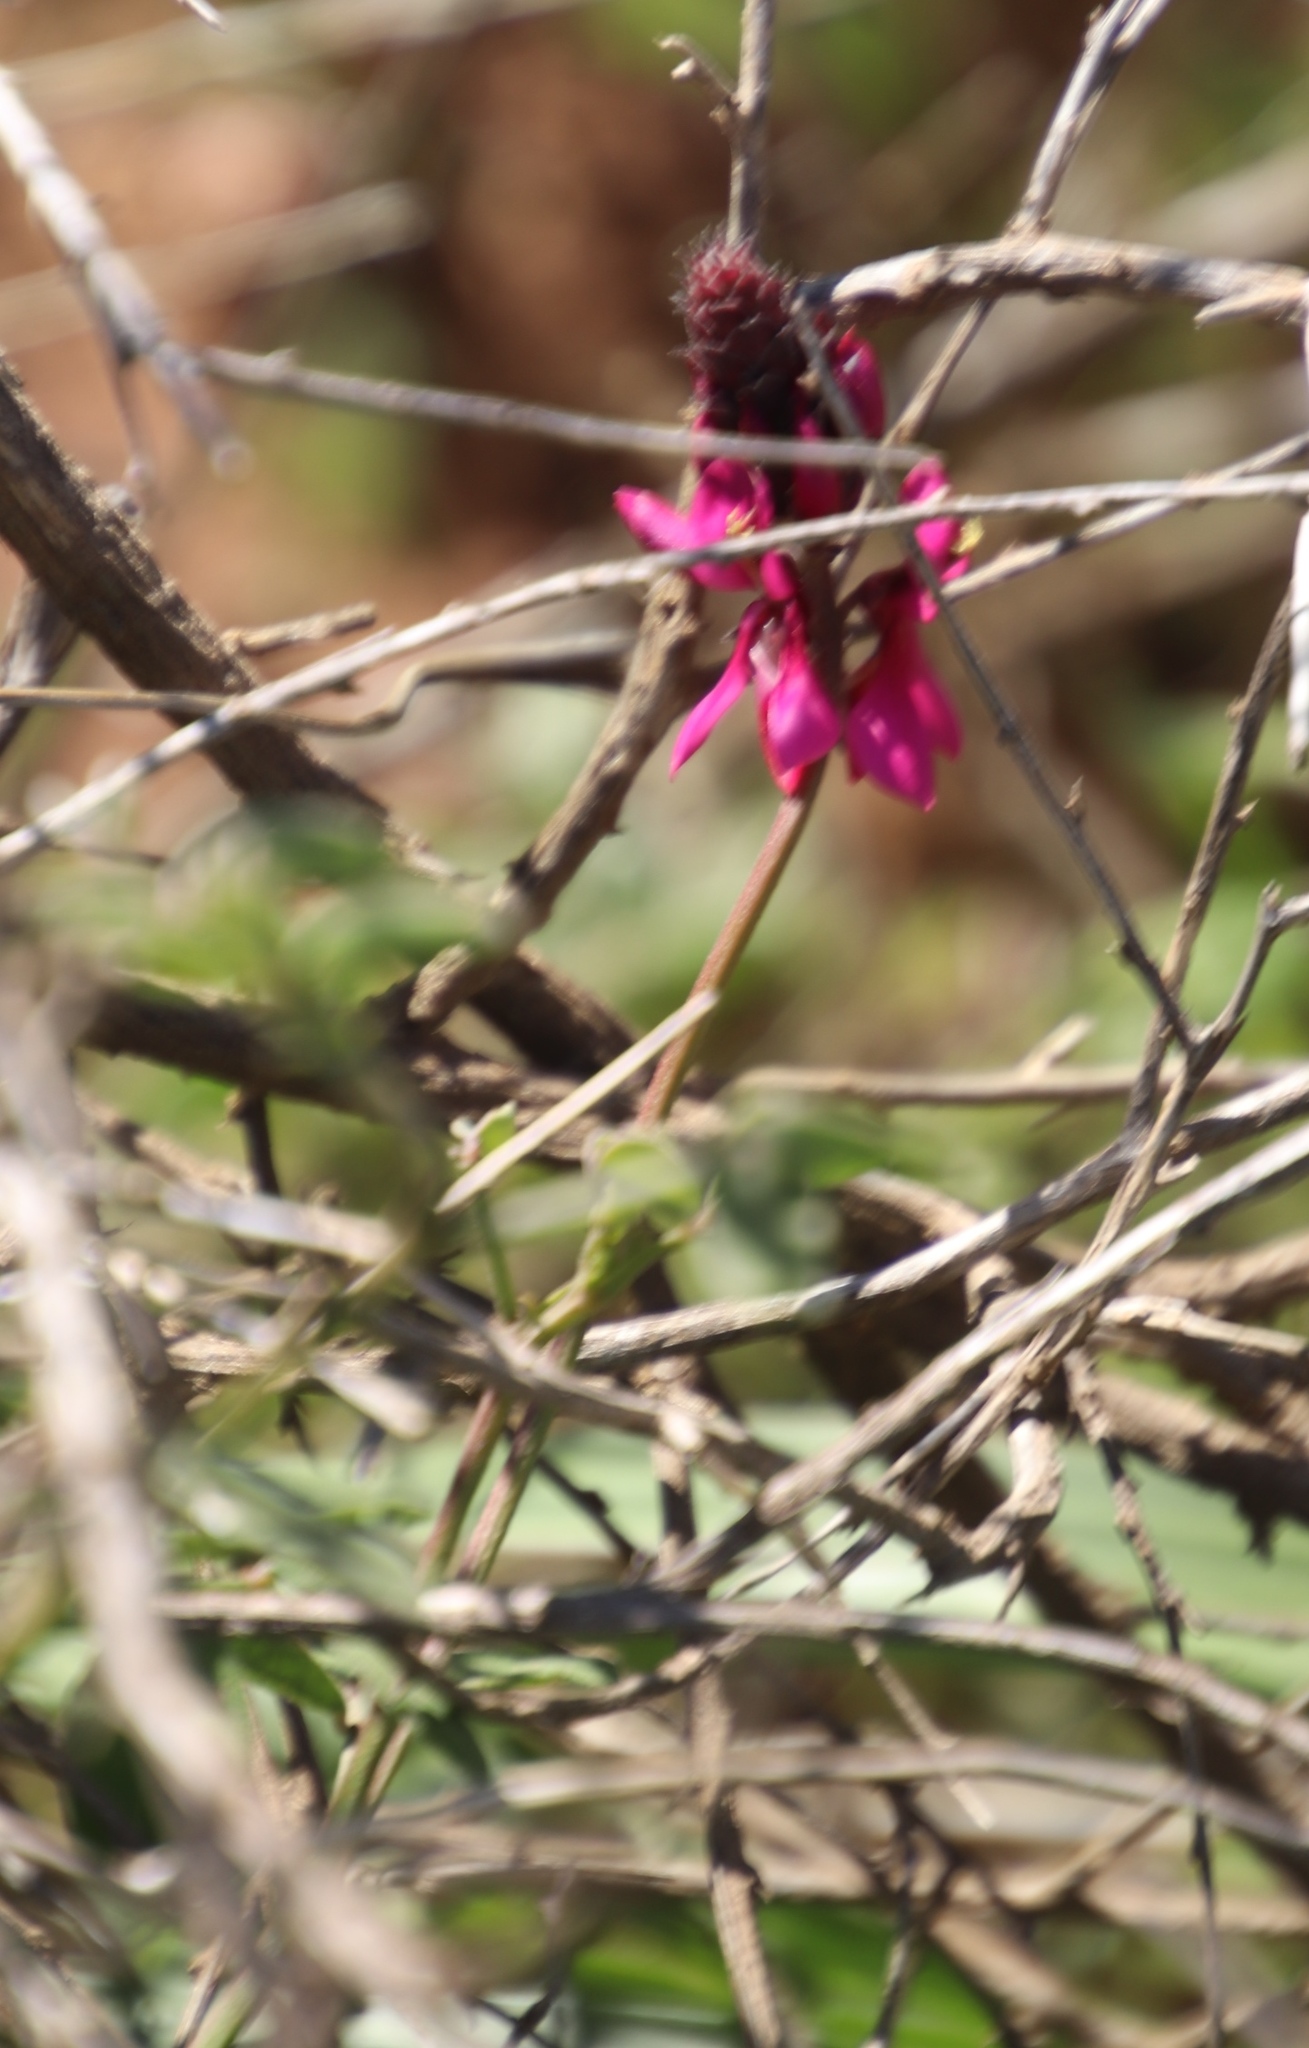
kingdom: Plantae
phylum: Tracheophyta
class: Magnoliopsida
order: Fabales
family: Fabaceae
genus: Indigofera
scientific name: Indigofera intermedia
